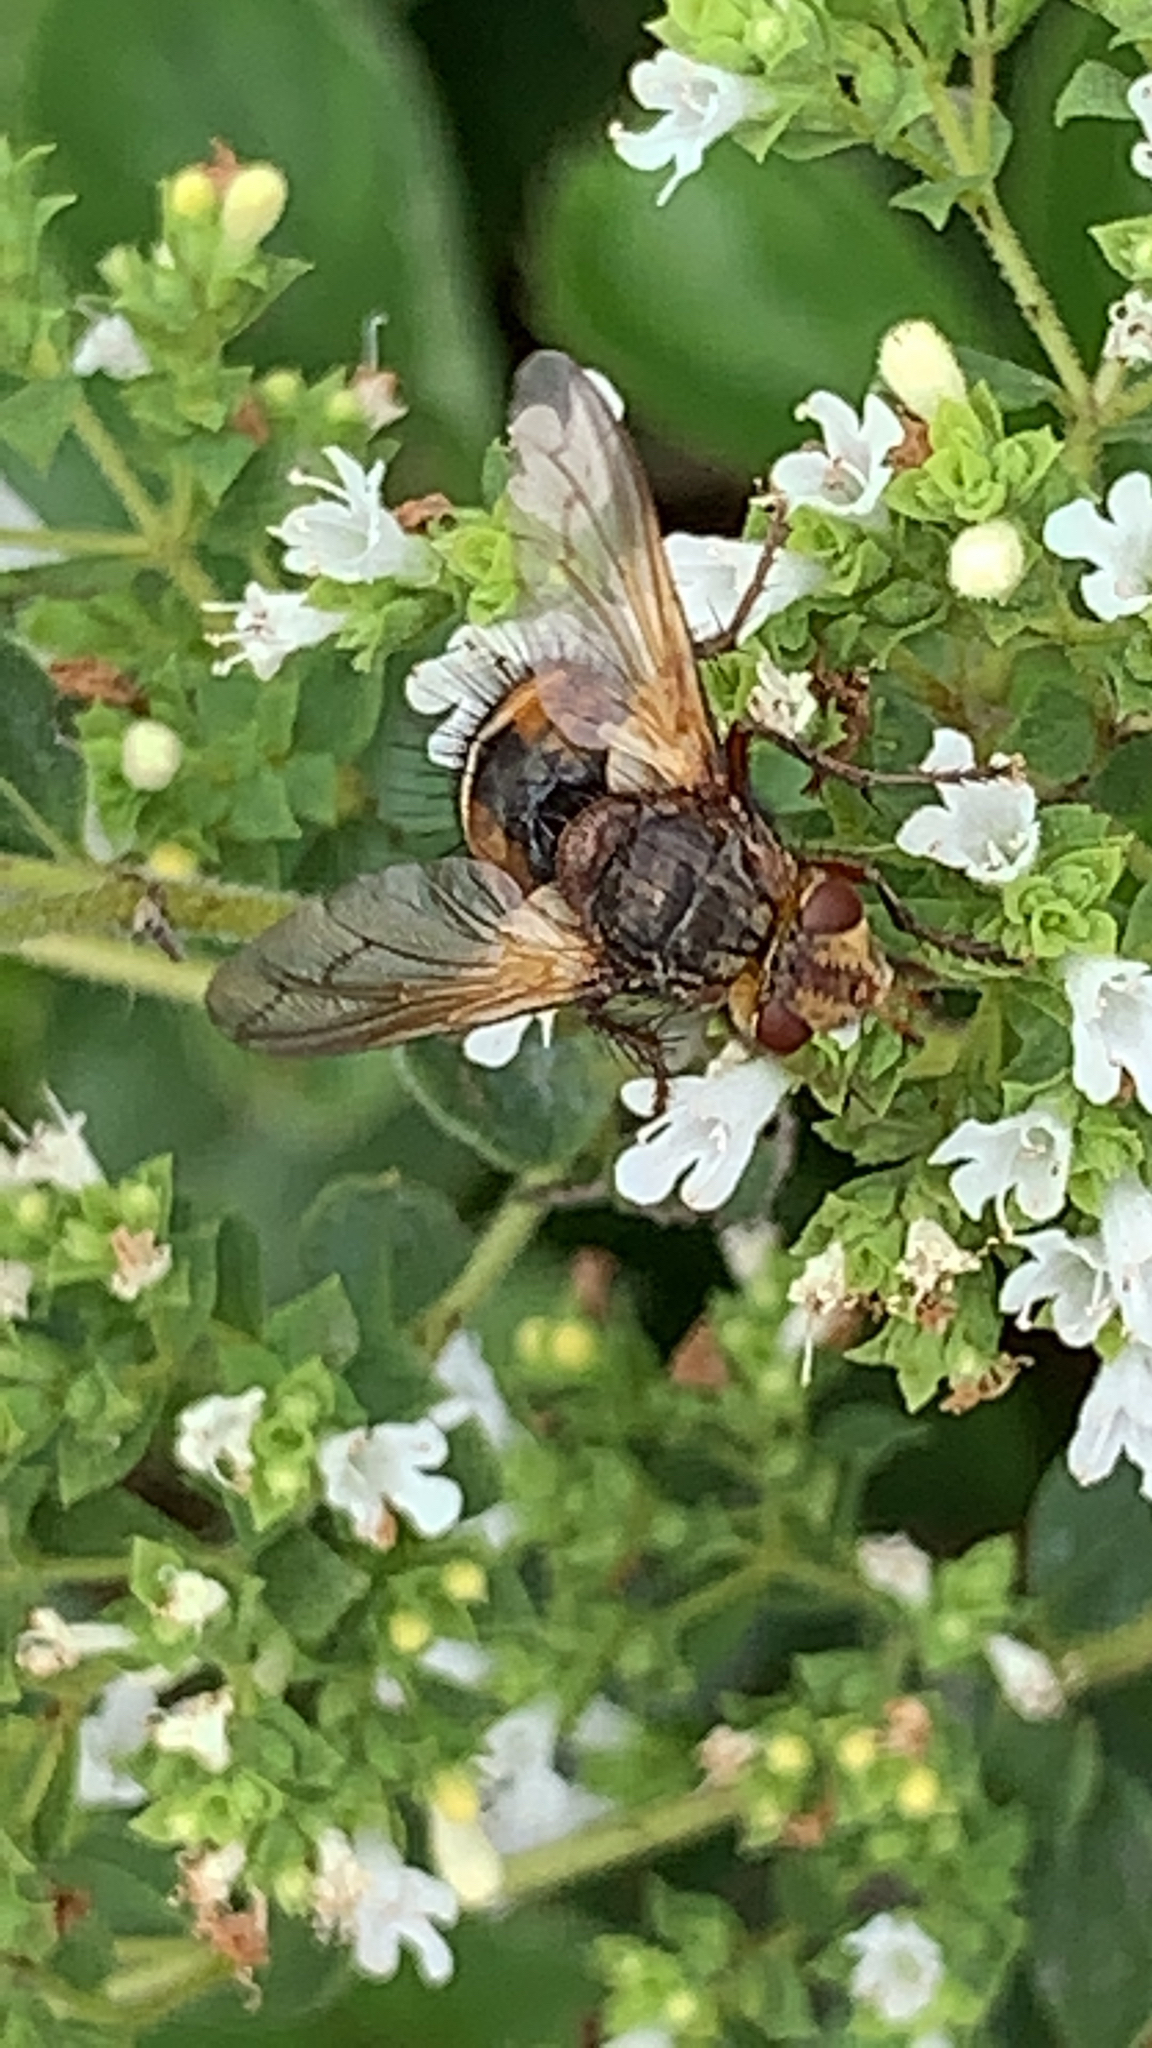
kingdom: Animalia
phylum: Arthropoda
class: Insecta
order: Diptera
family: Tachinidae
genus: Tachina
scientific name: Tachina fera
